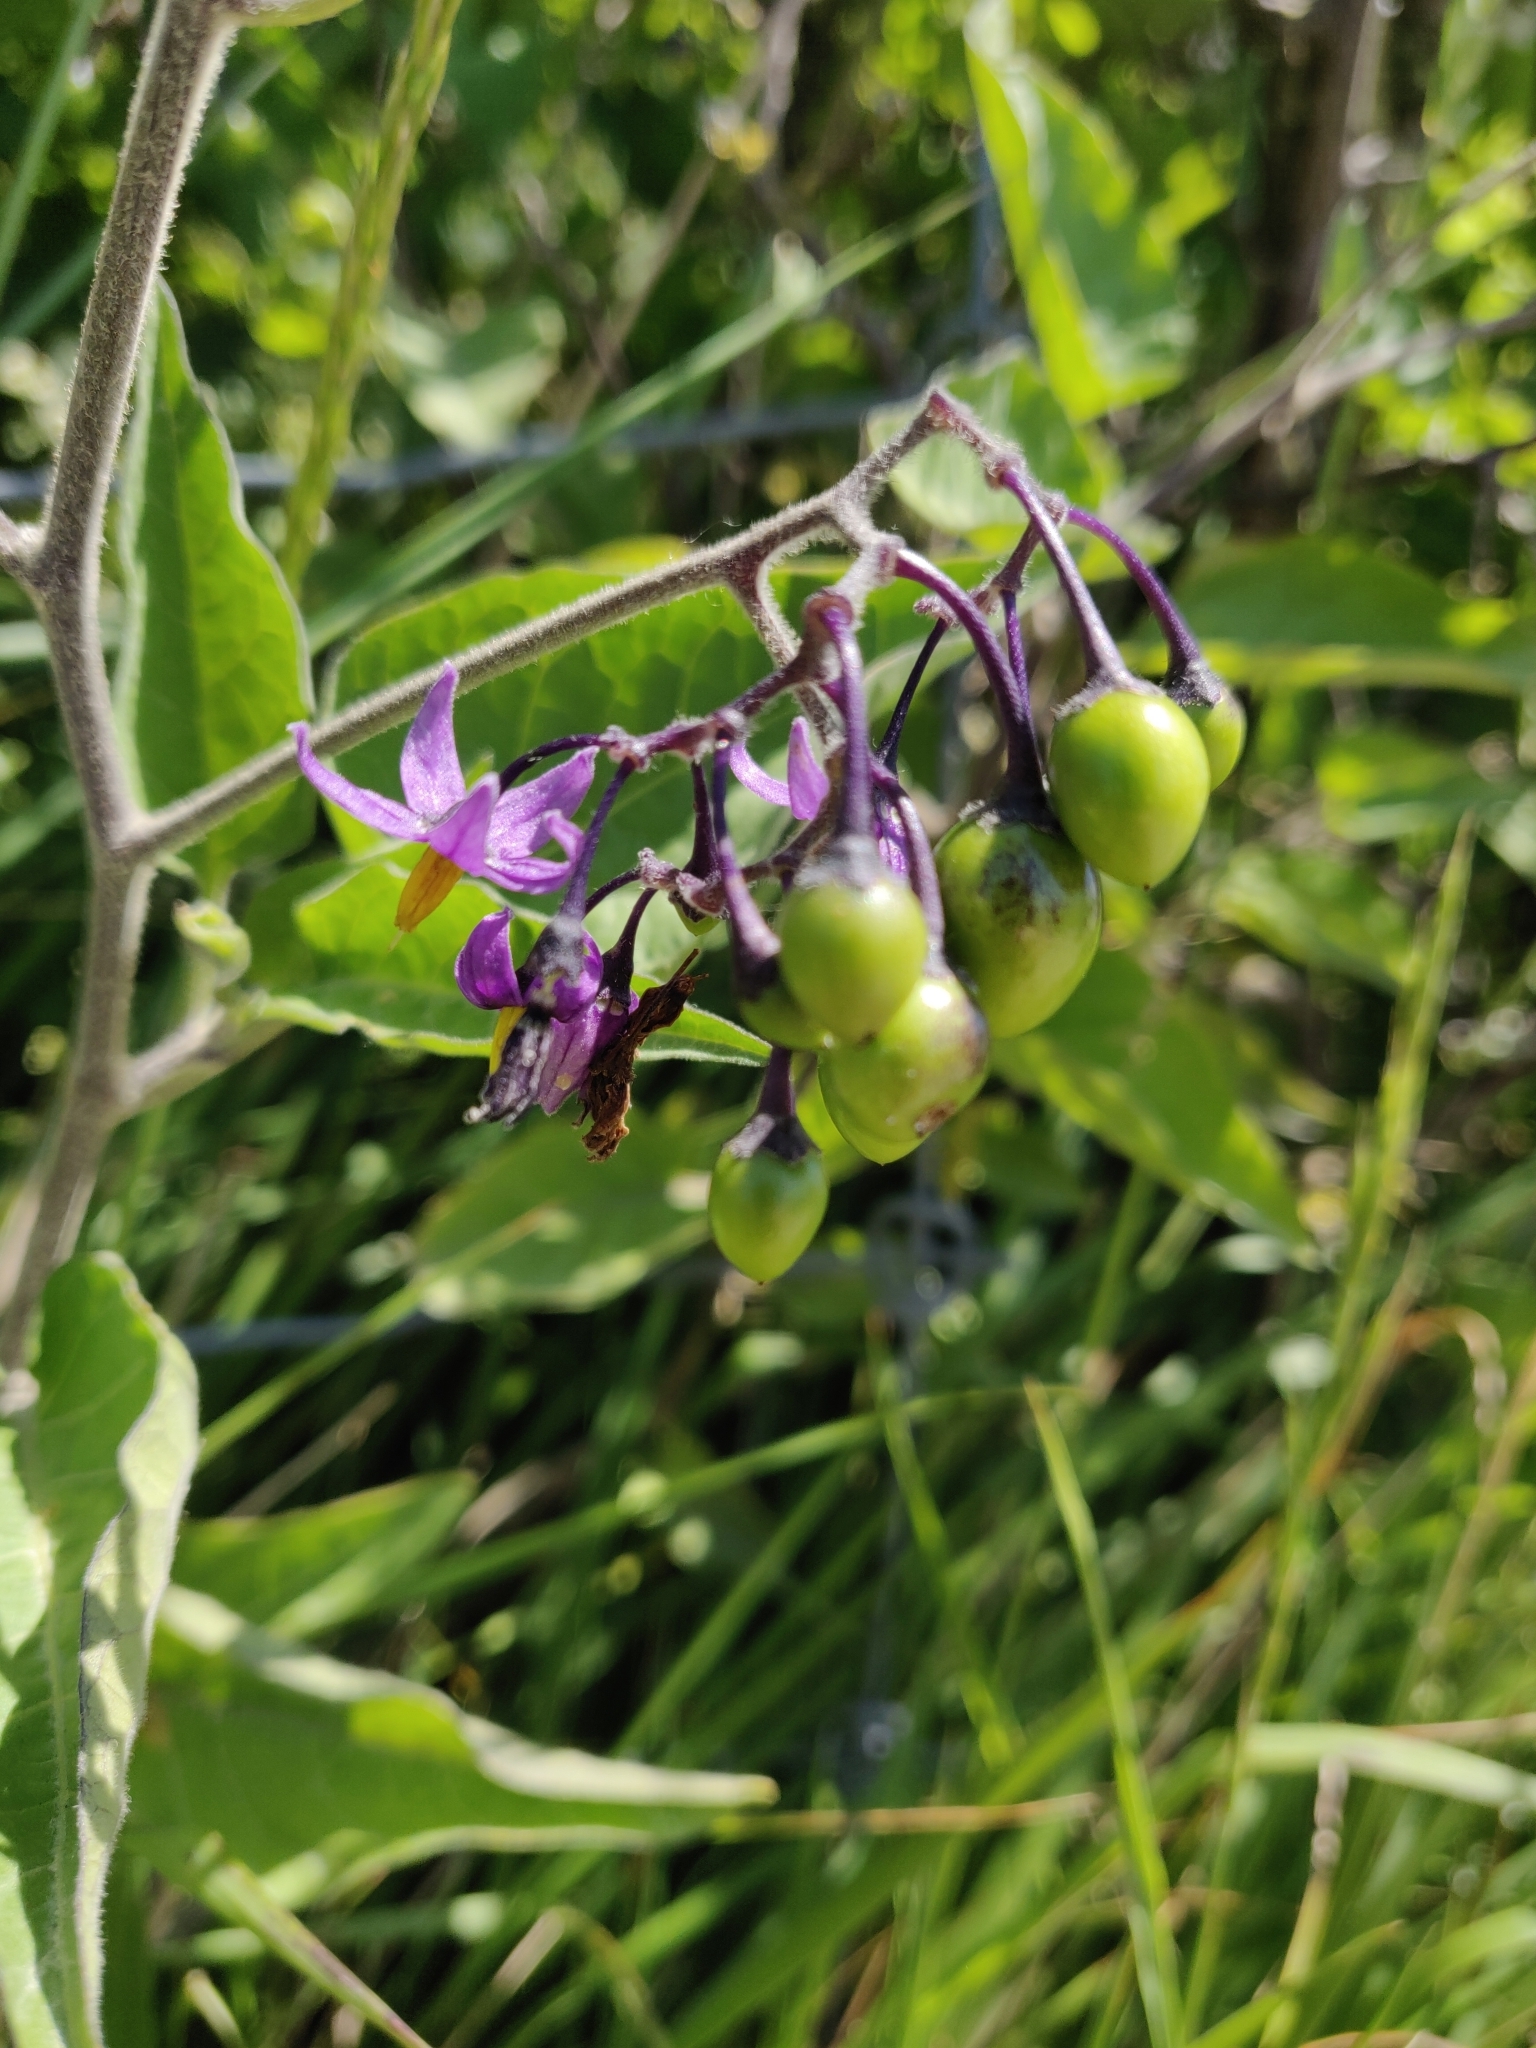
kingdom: Plantae
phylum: Tracheophyta
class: Magnoliopsida
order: Solanales
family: Solanaceae
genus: Solanum
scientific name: Solanum dulcamara
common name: Climbing nightshade
